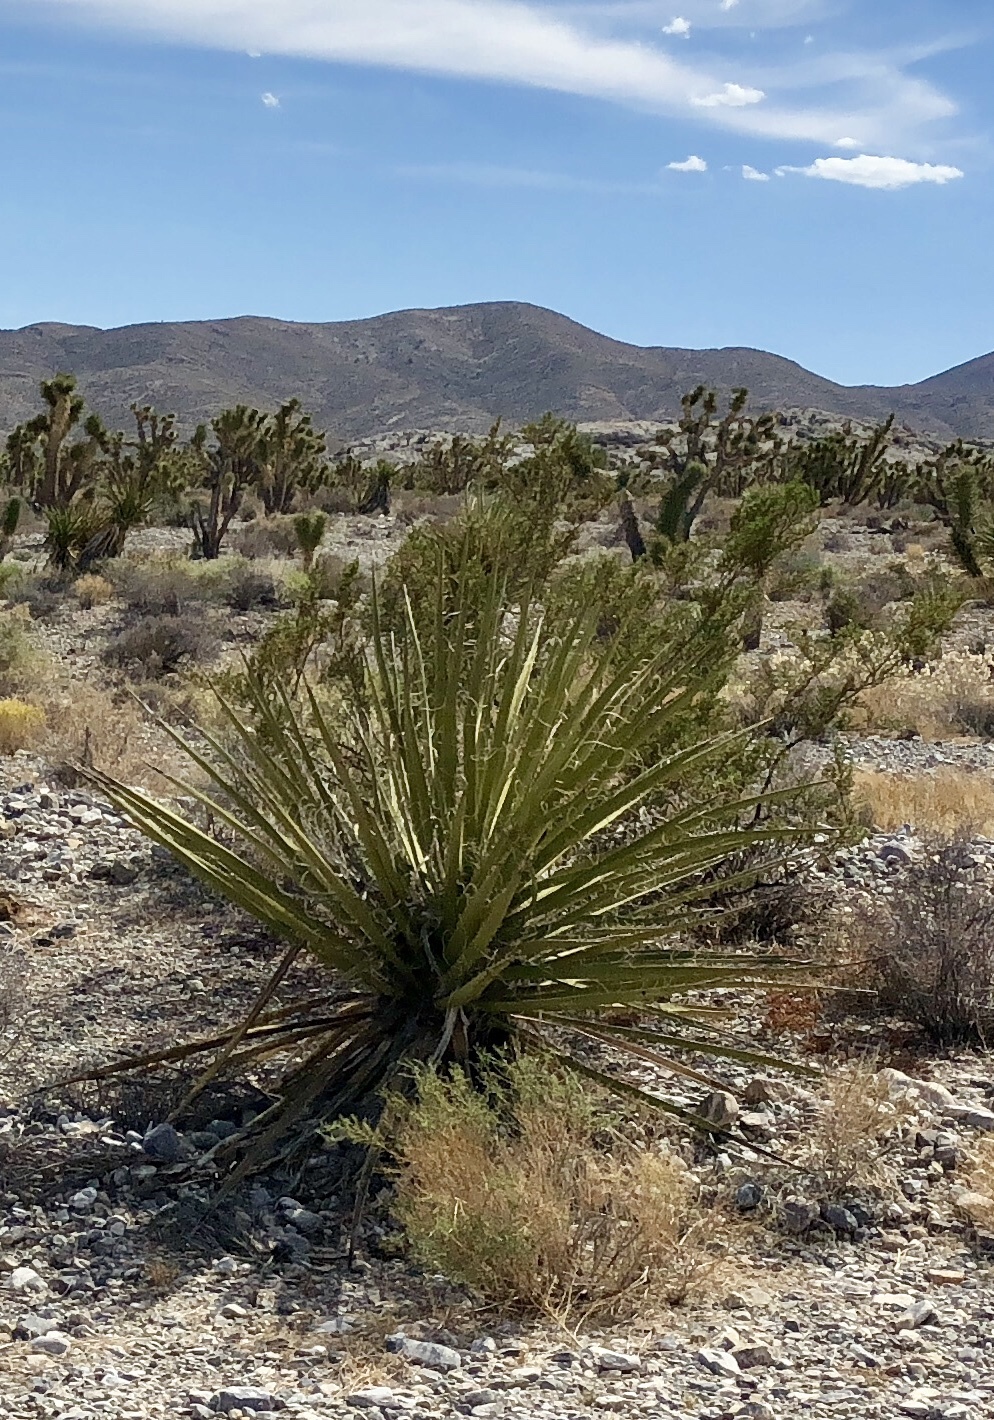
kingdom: Plantae
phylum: Tracheophyta
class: Liliopsida
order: Asparagales
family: Asparagaceae
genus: Yucca
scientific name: Yucca schidigera
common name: Mojave yucca
